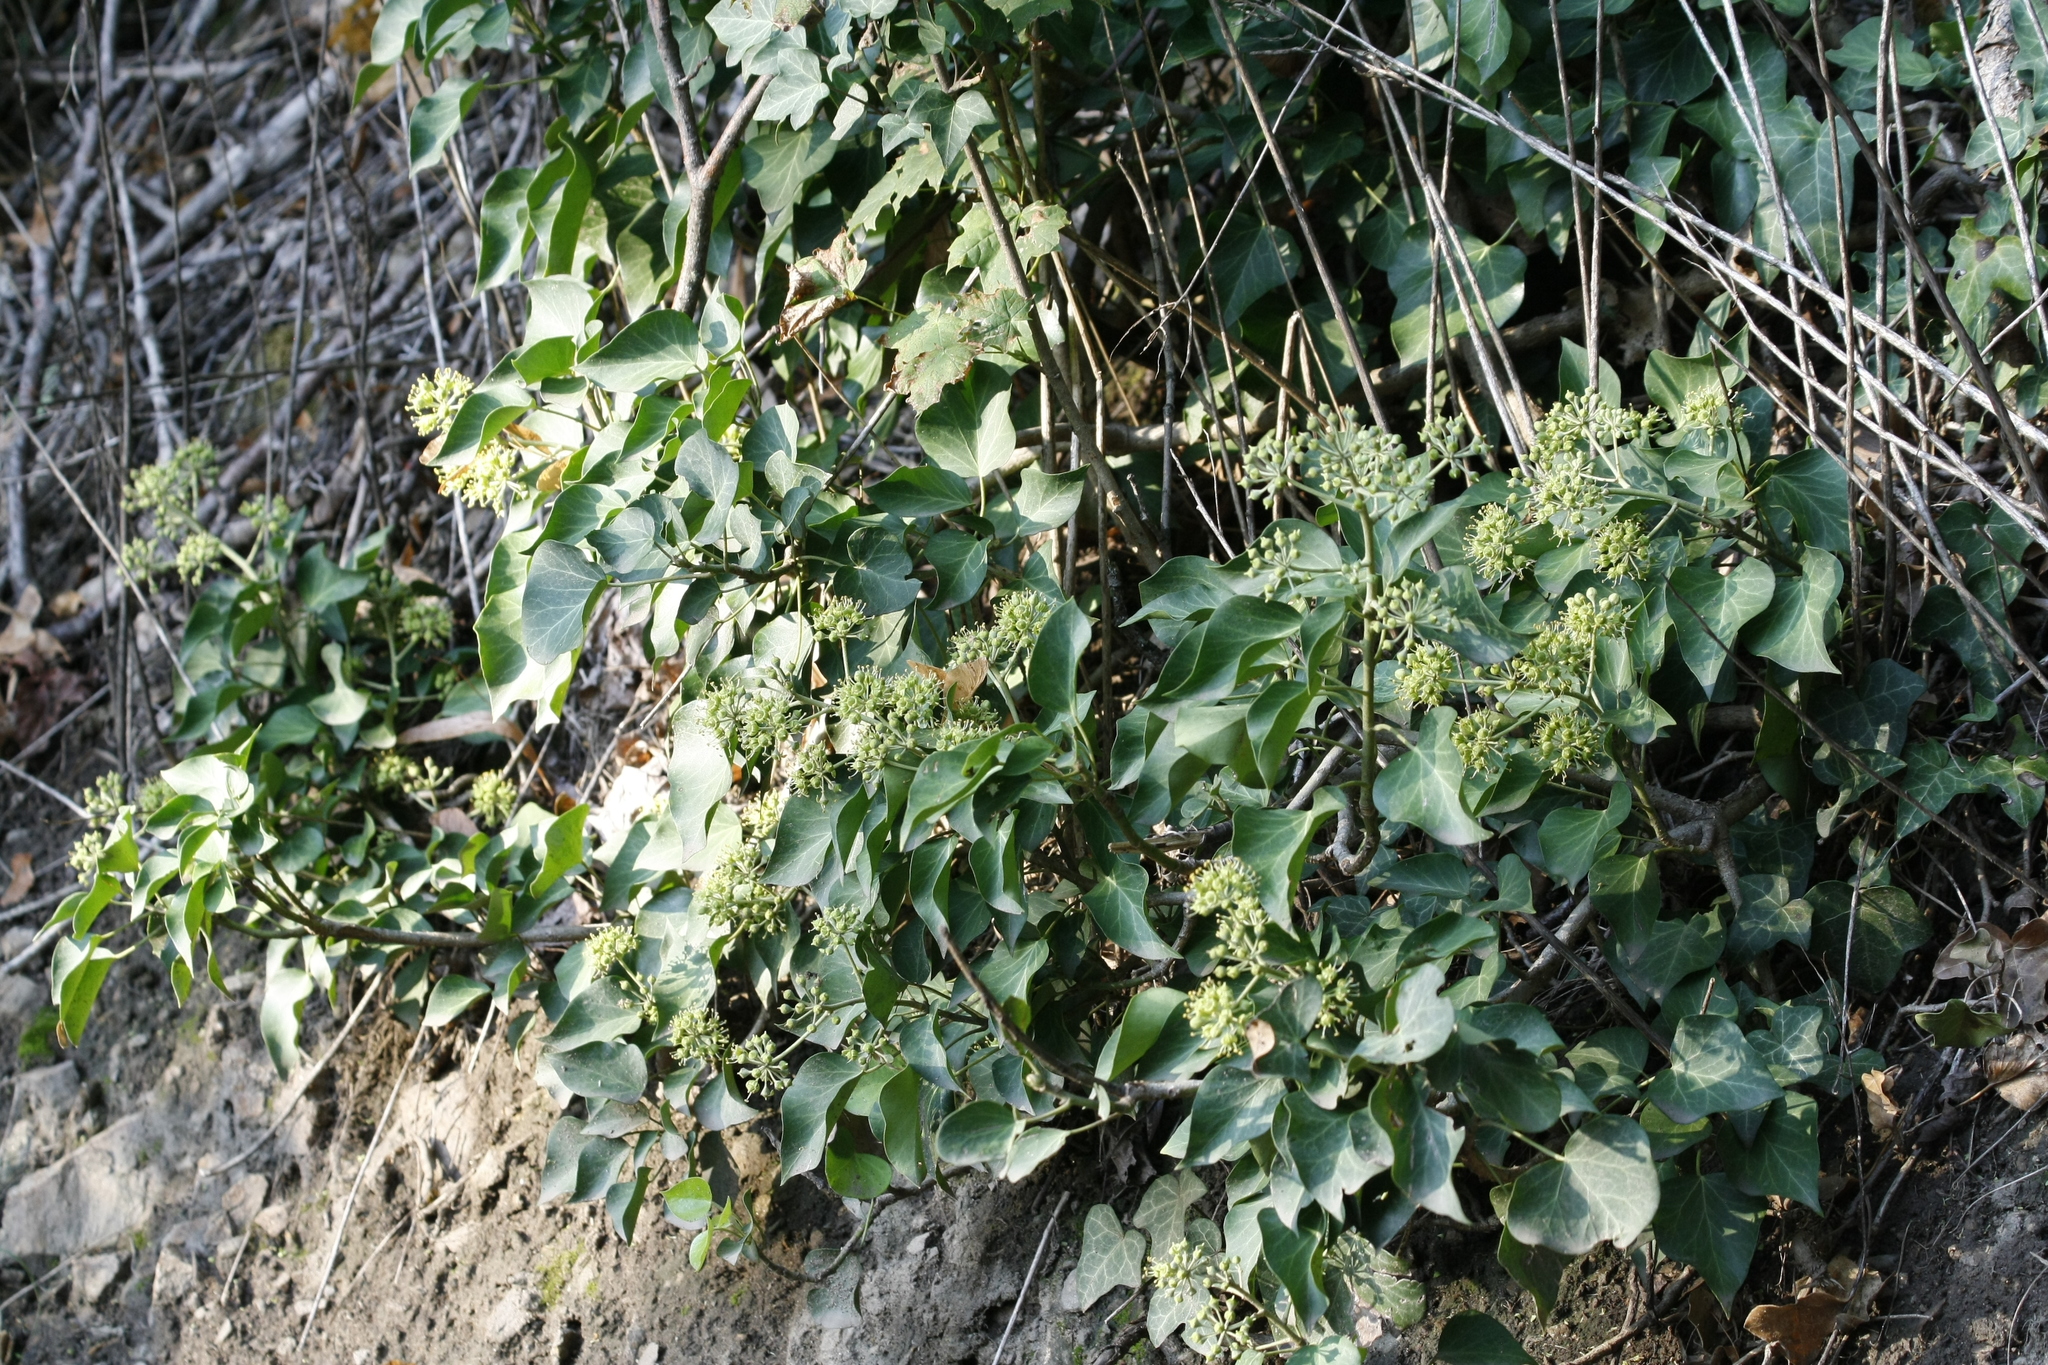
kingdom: Plantae
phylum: Tracheophyta
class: Magnoliopsida
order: Apiales
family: Araliaceae
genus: Hedera
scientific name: Hedera helix
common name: Ivy
